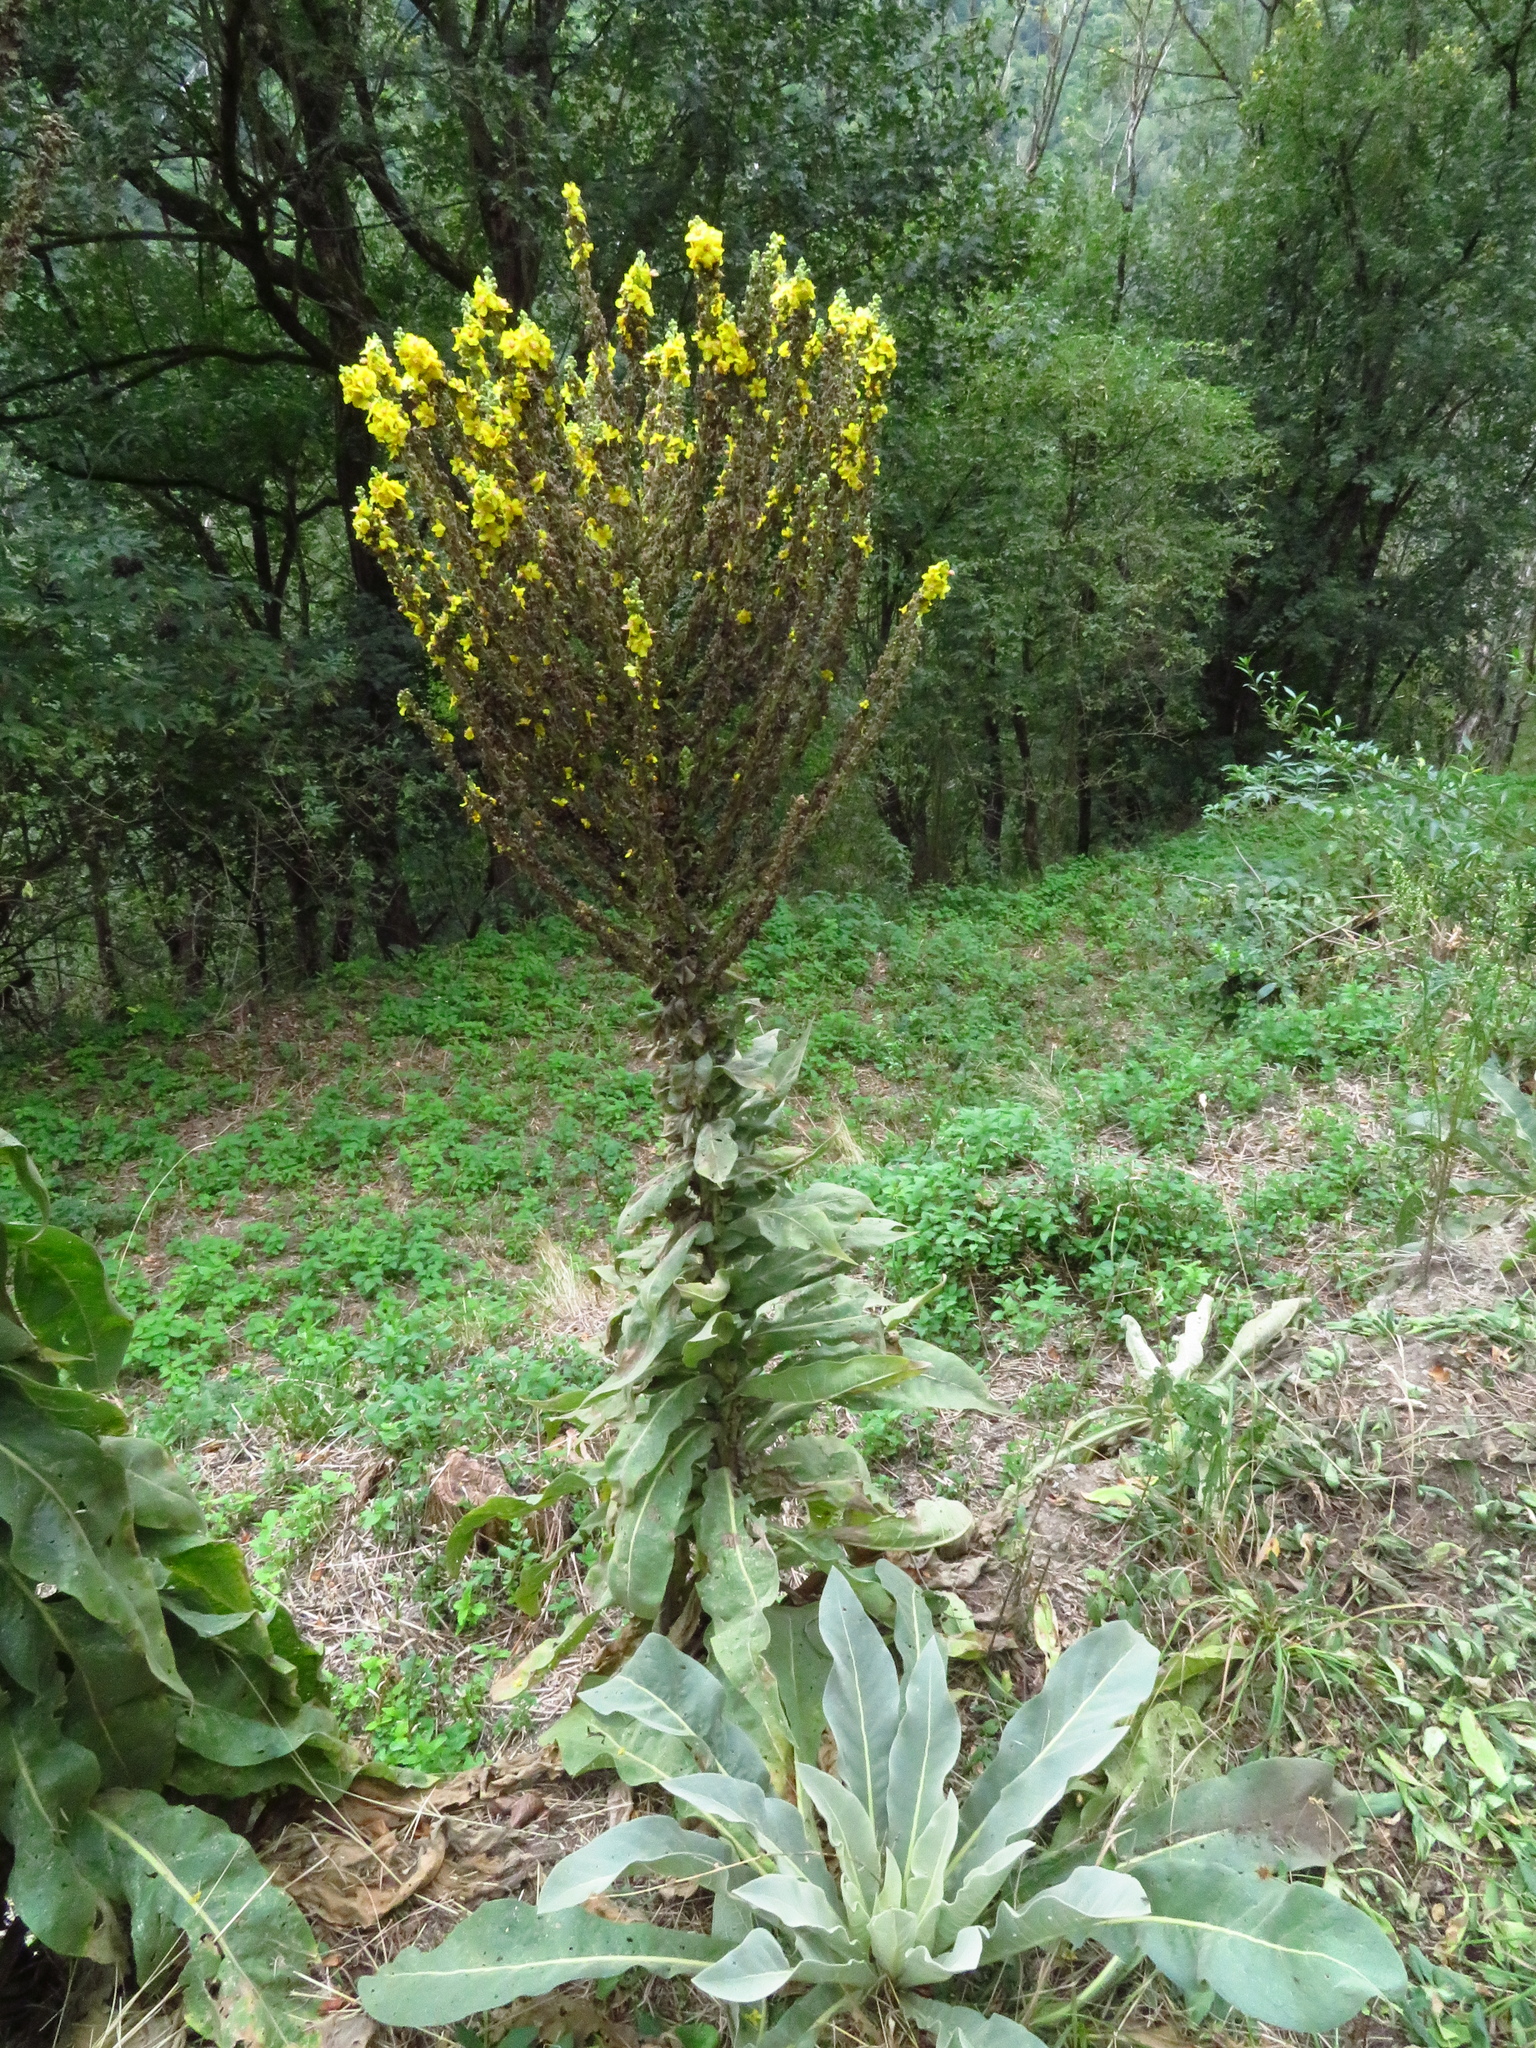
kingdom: Plantae
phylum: Tracheophyta
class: Magnoliopsida
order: Lamiales
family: Scrophulariaceae
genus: Verbascum
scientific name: Verbascum speciosum
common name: Hungarian mullein
